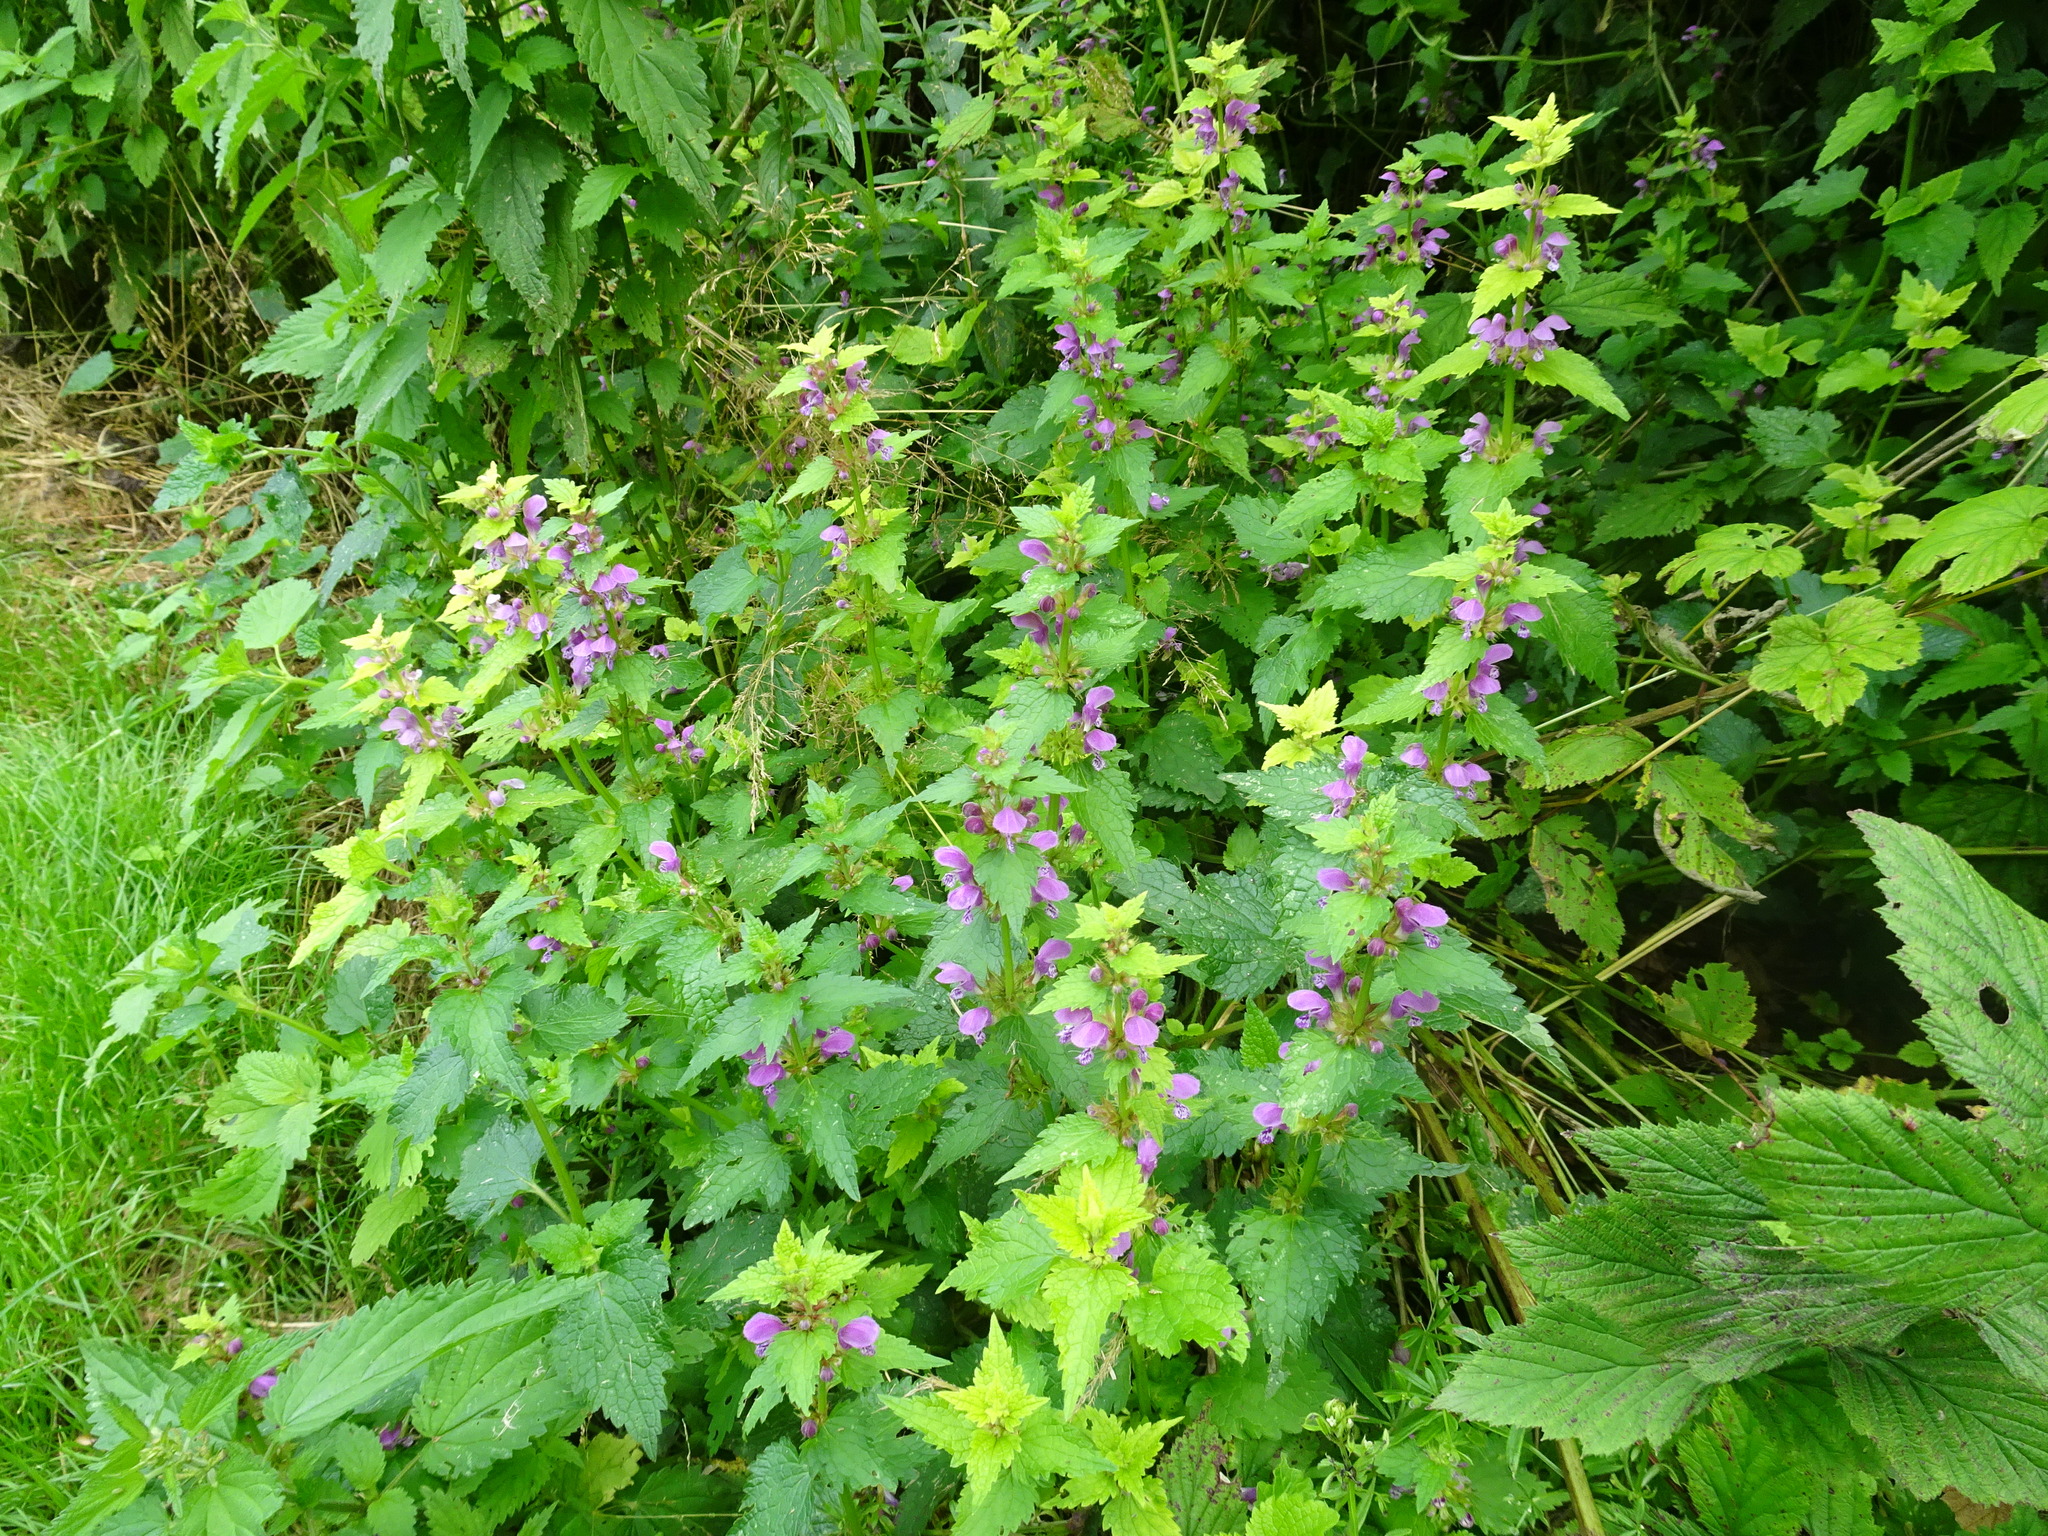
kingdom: Plantae
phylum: Tracheophyta
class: Magnoliopsida
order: Lamiales
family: Lamiaceae
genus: Lamium
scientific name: Lamium maculatum
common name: Spotted dead-nettle
